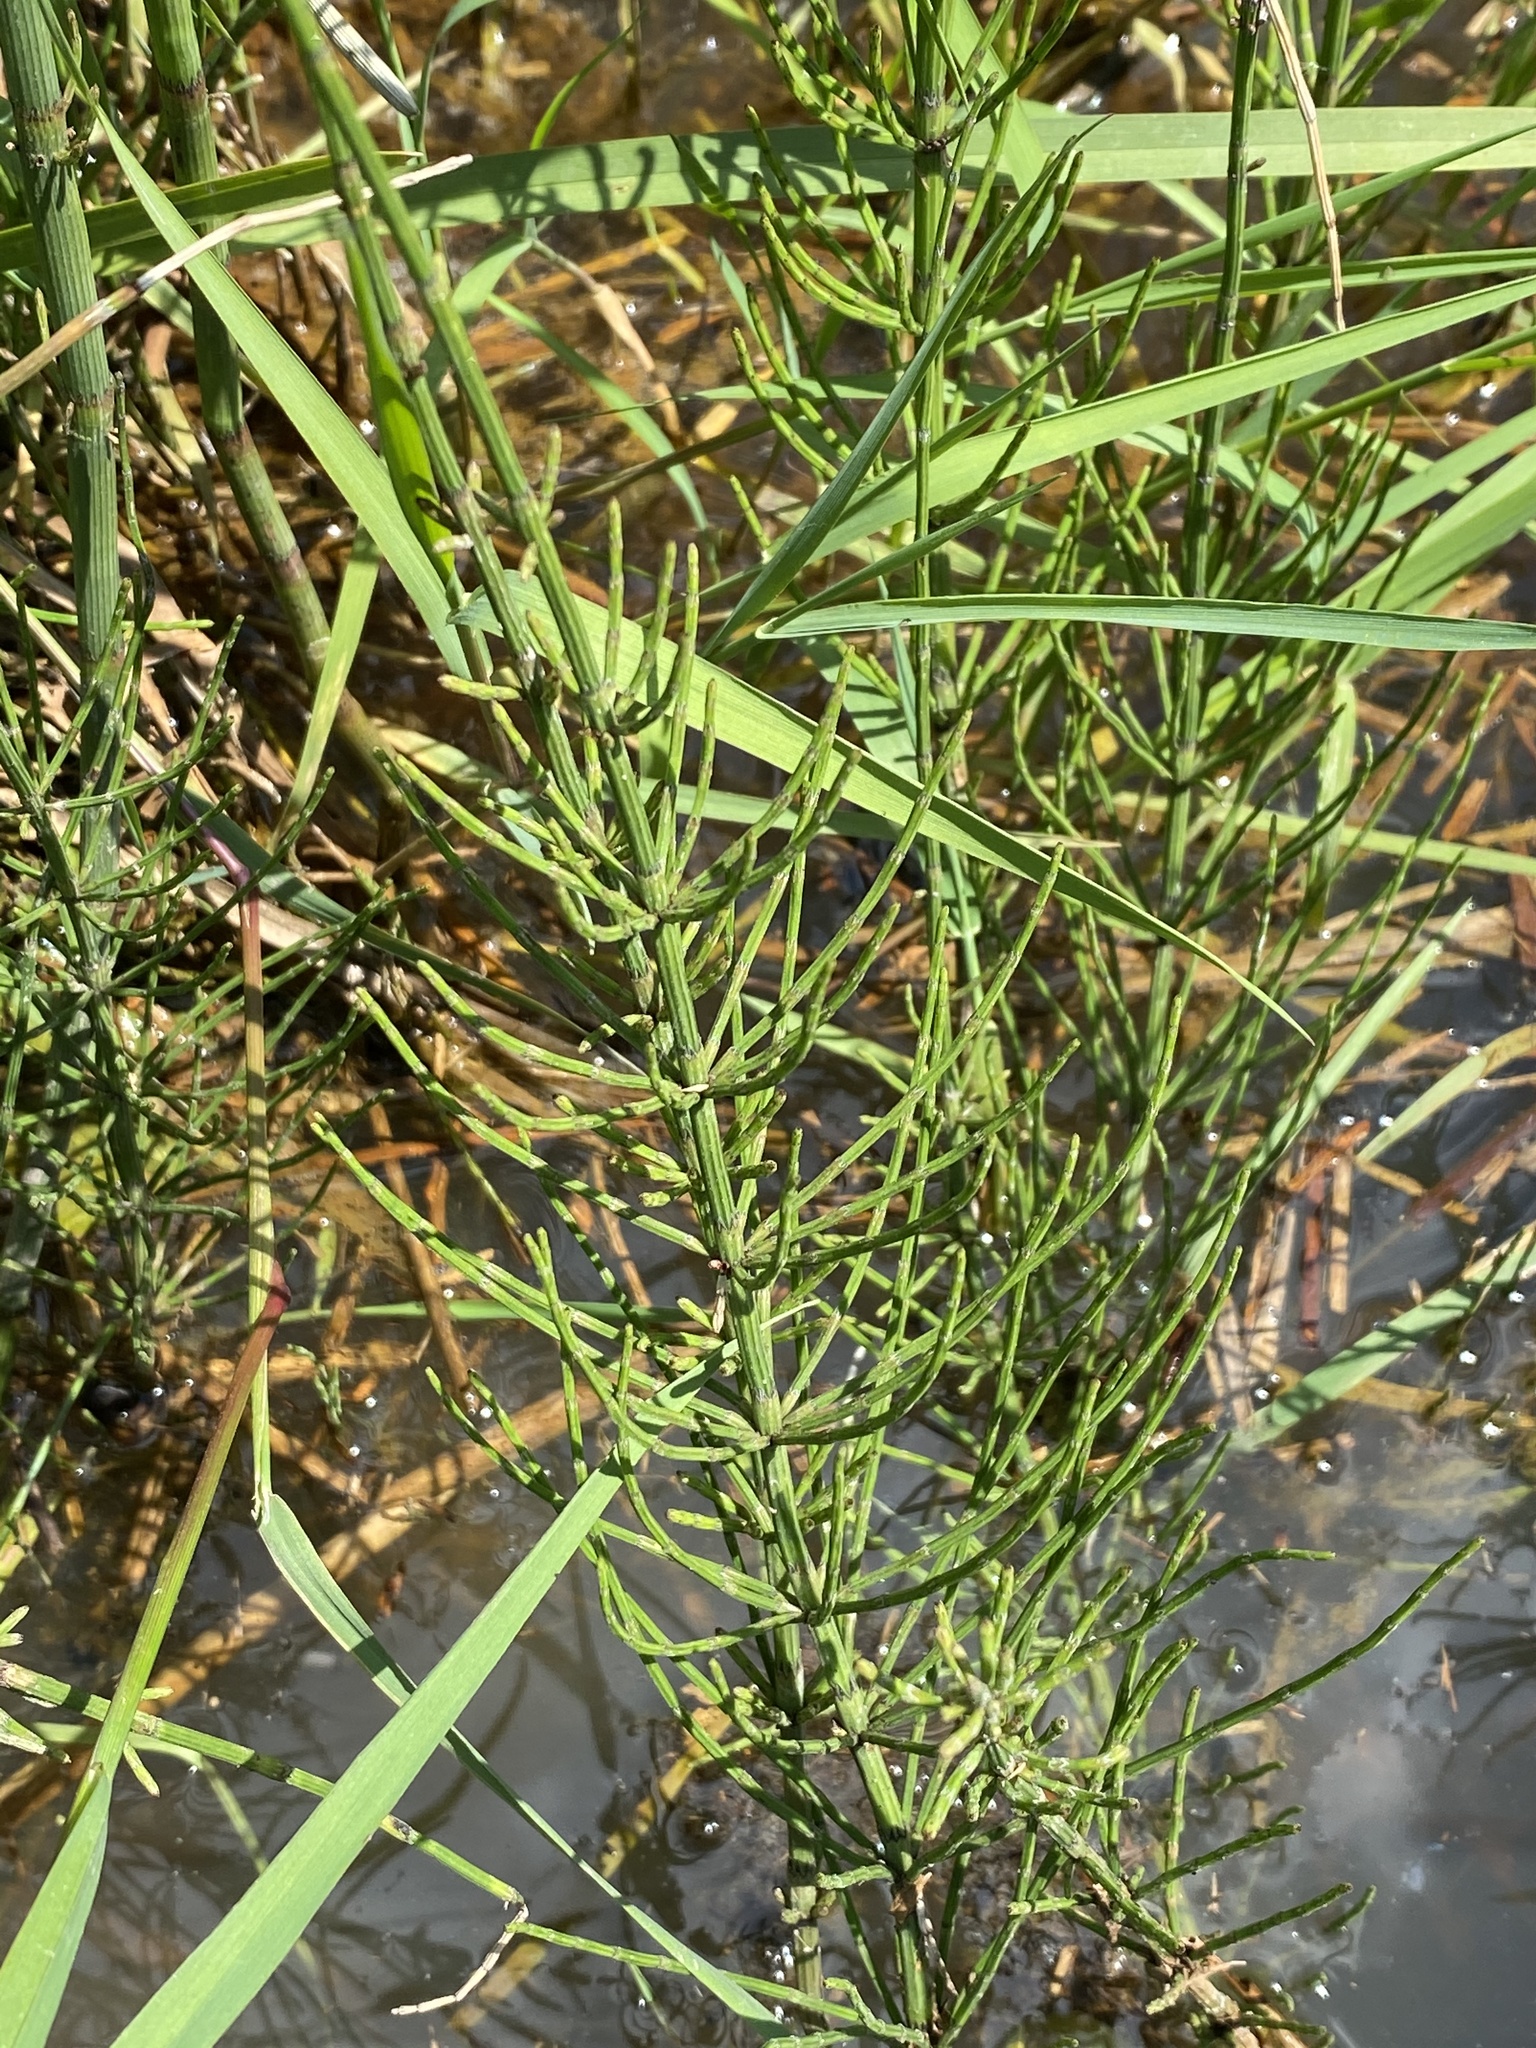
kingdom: Plantae
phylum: Tracheophyta
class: Polypodiopsida
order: Equisetales
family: Equisetaceae
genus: Equisetum
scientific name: Equisetum palustre
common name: Marsh horsetail
